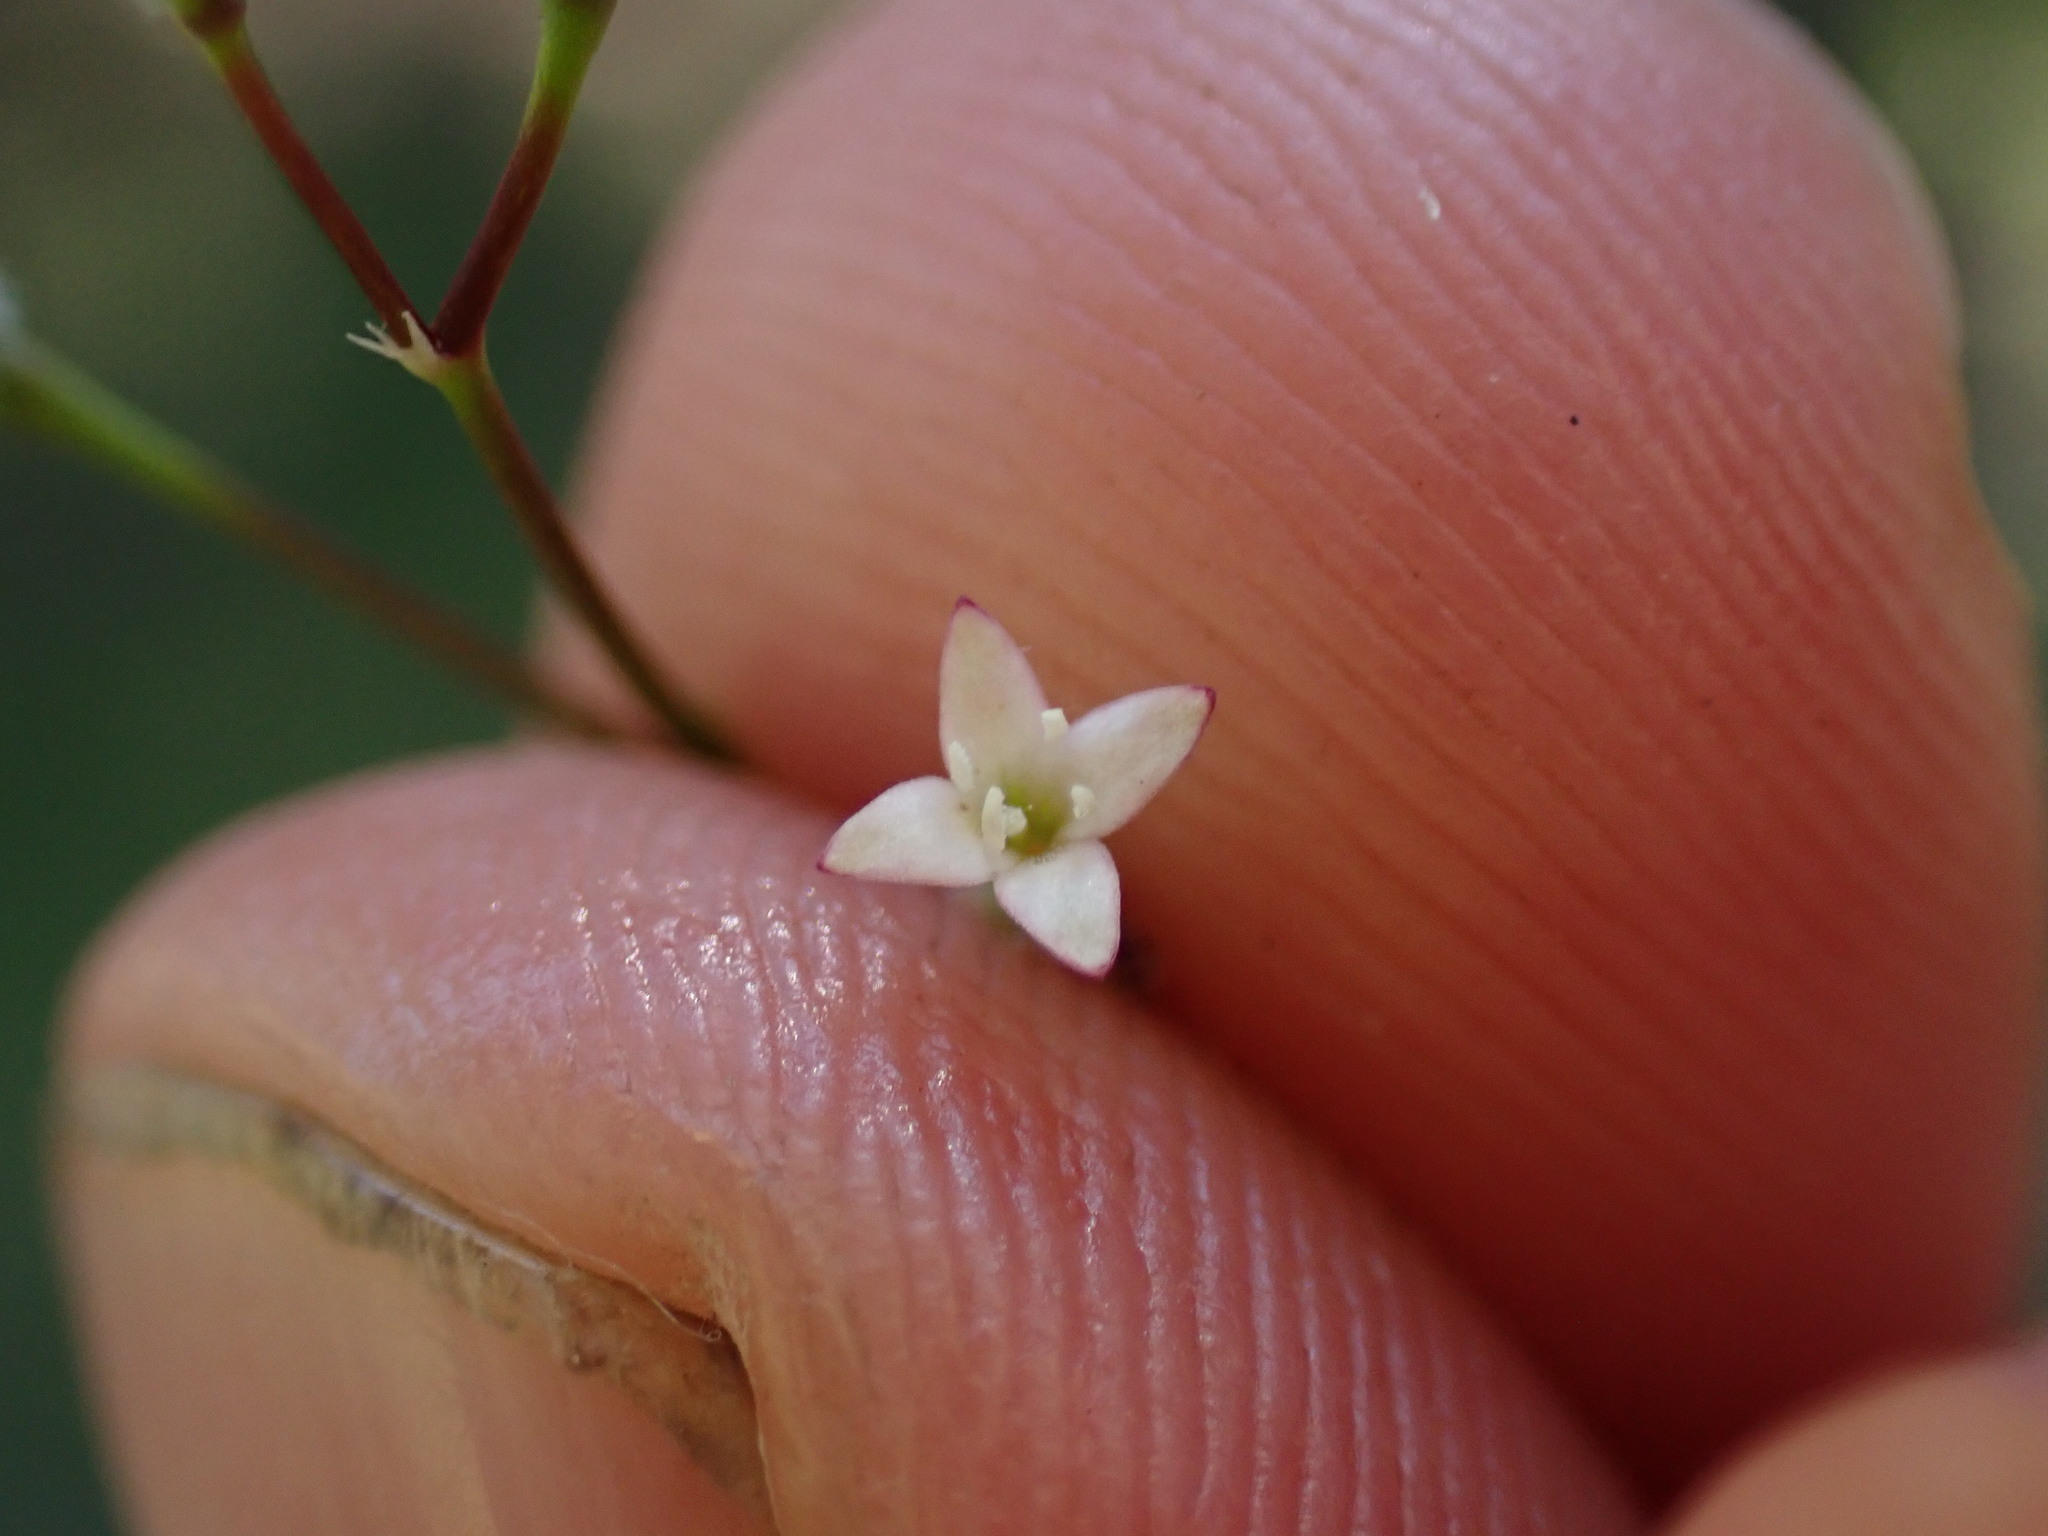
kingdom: Plantae
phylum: Tracheophyta
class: Magnoliopsida
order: Gentianales
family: Rubiaceae
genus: Kelloggia
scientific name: Kelloggia galioides
